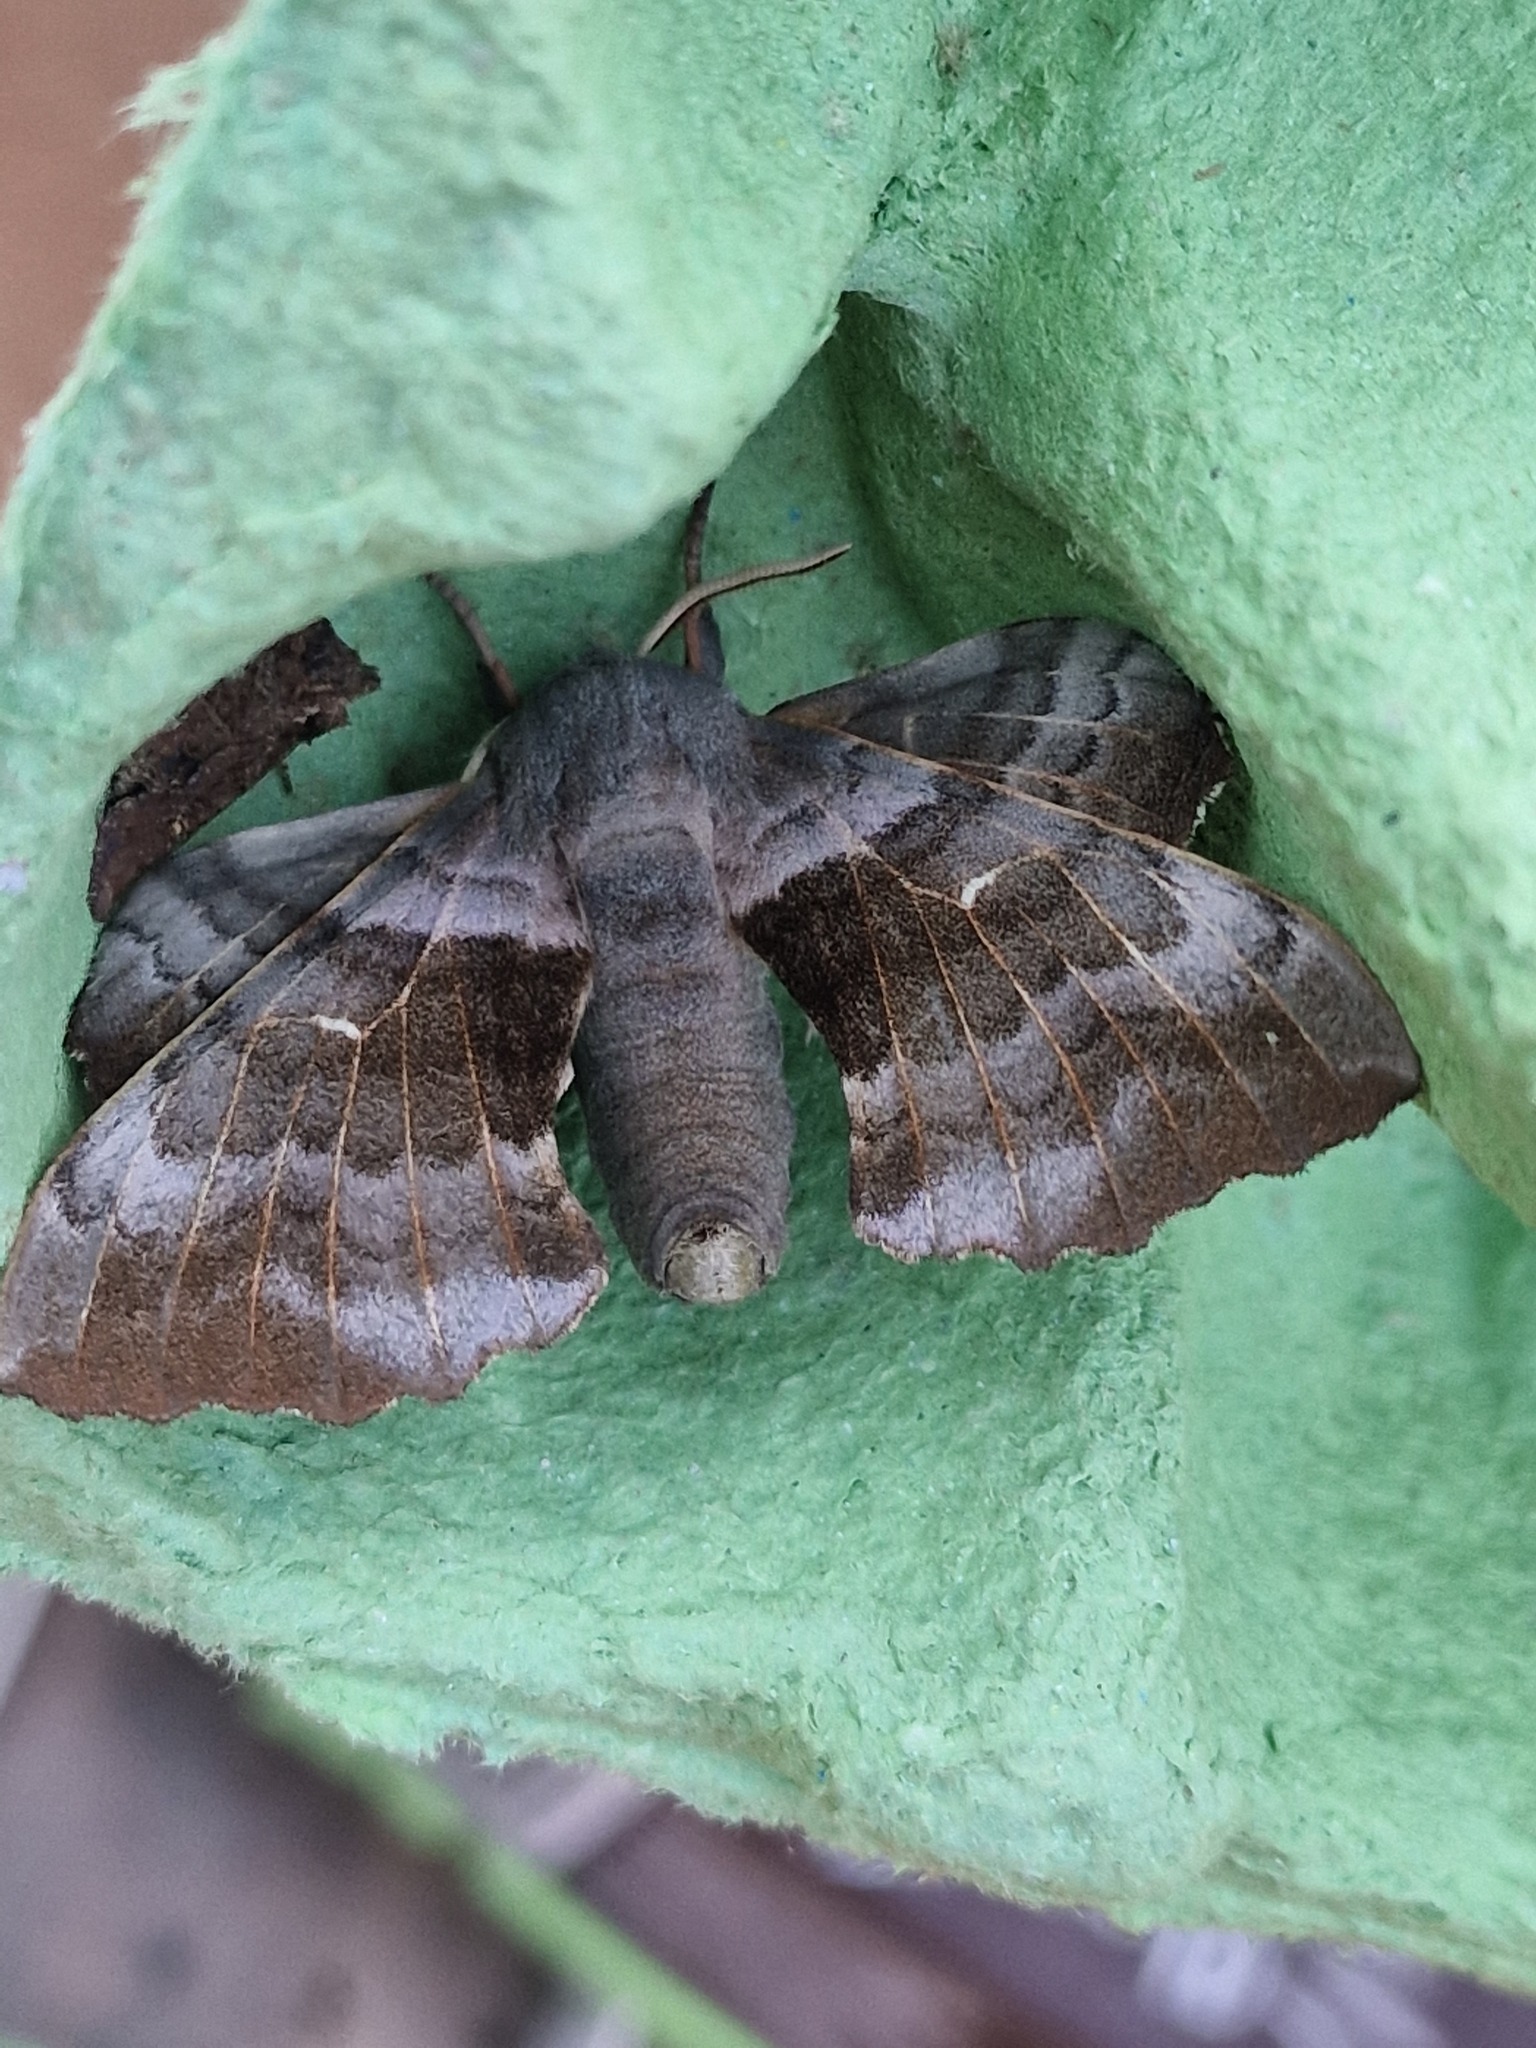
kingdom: Animalia
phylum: Arthropoda
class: Insecta
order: Lepidoptera
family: Sphingidae
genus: Laothoe
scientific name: Laothoe populi
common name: Poplar hawk-moth
